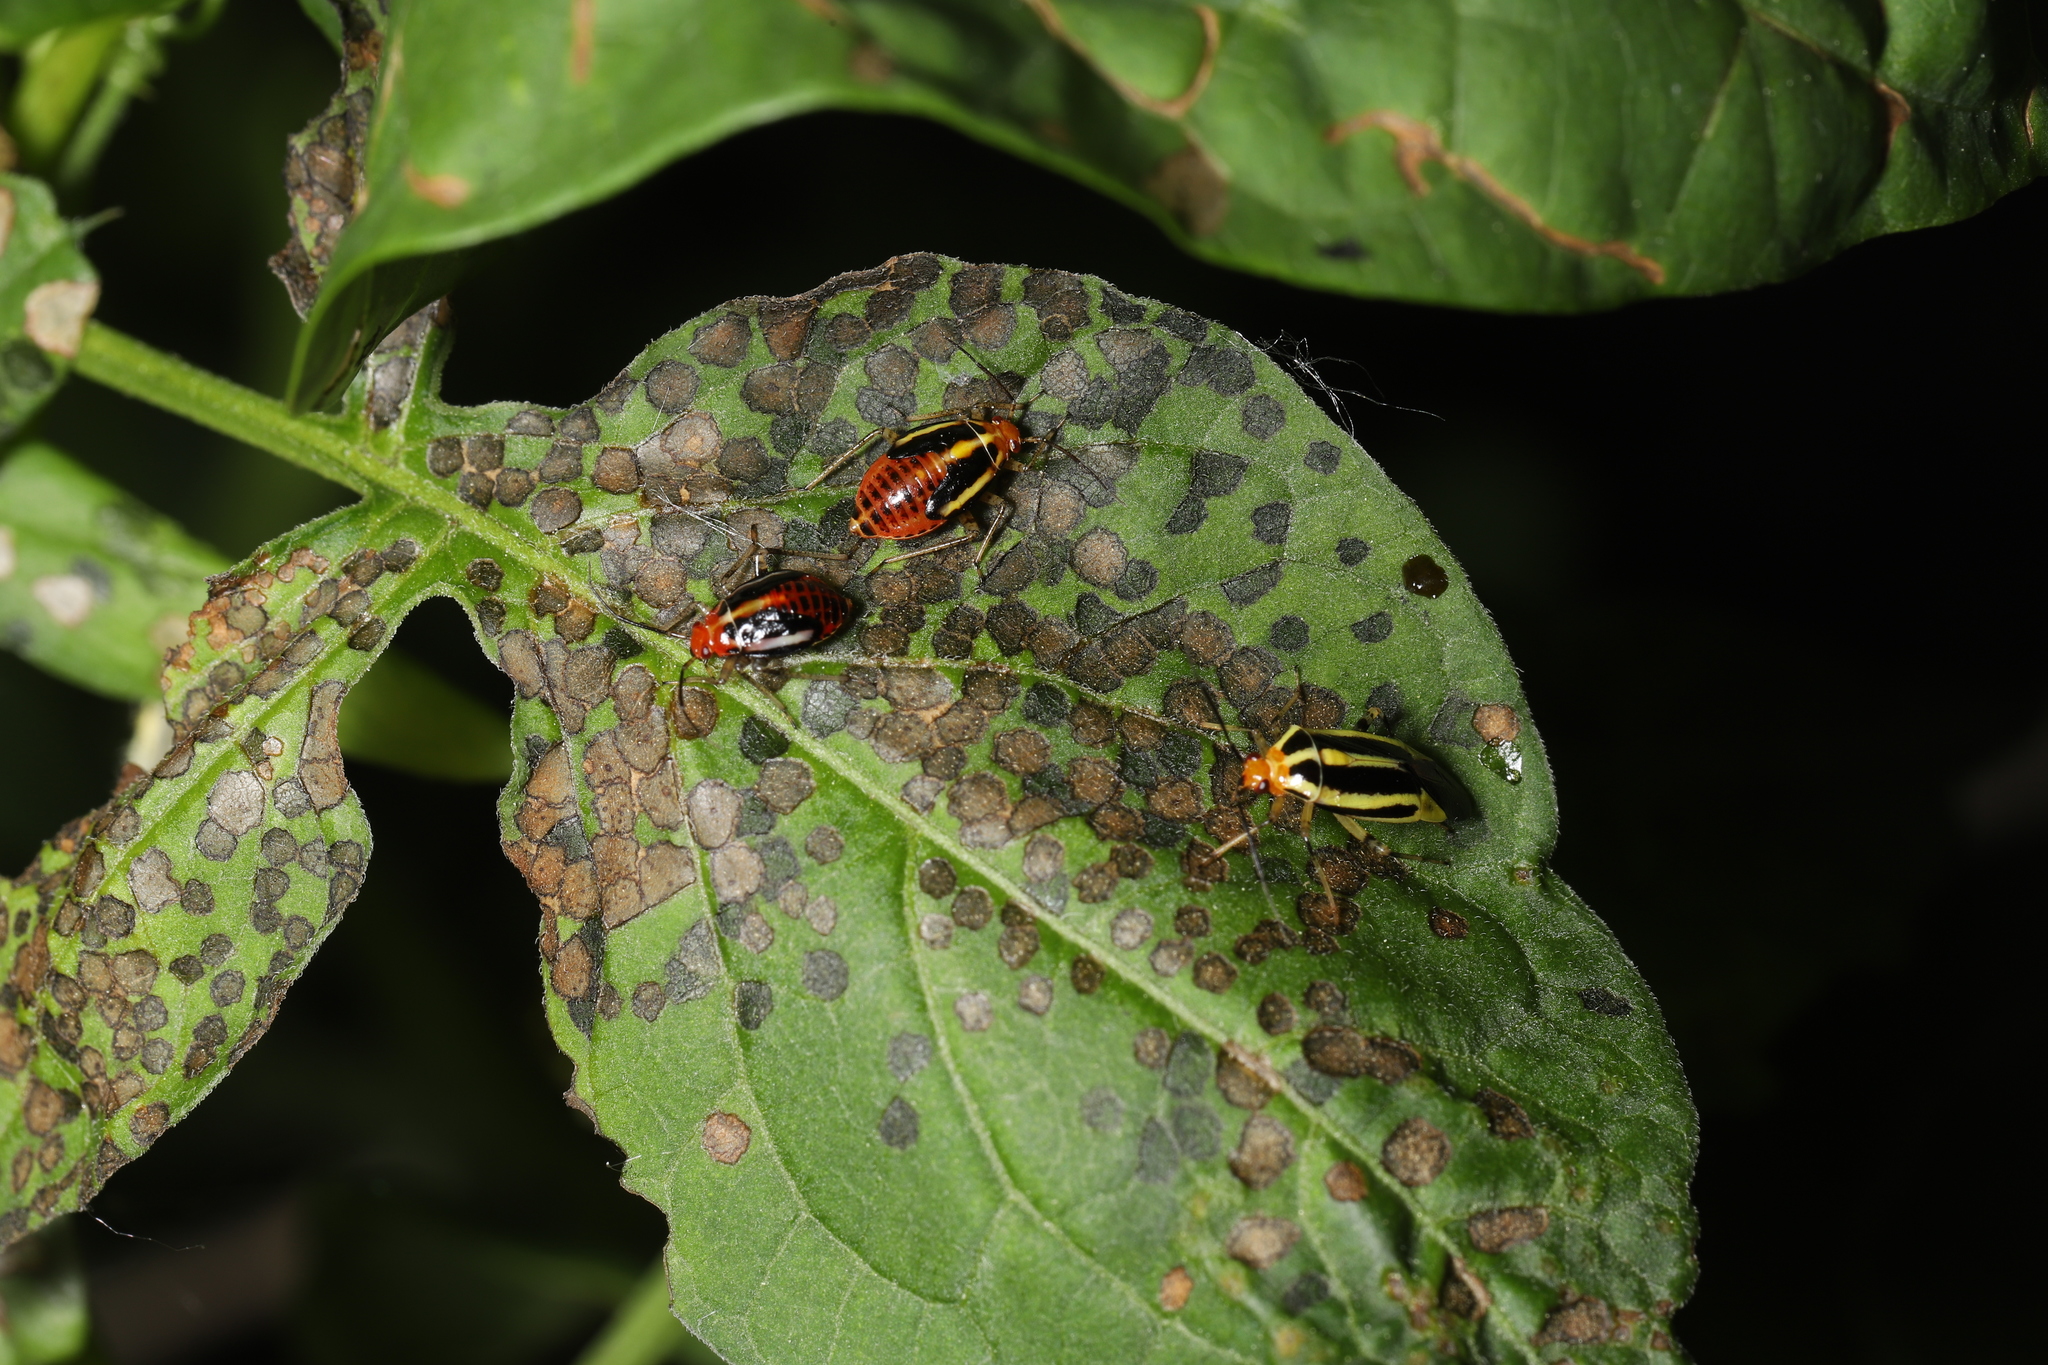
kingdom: Animalia
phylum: Arthropoda
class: Insecta
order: Hemiptera
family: Miridae
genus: Poecilocapsus
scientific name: Poecilocapsus lineatus
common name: Four-lined plant bug
